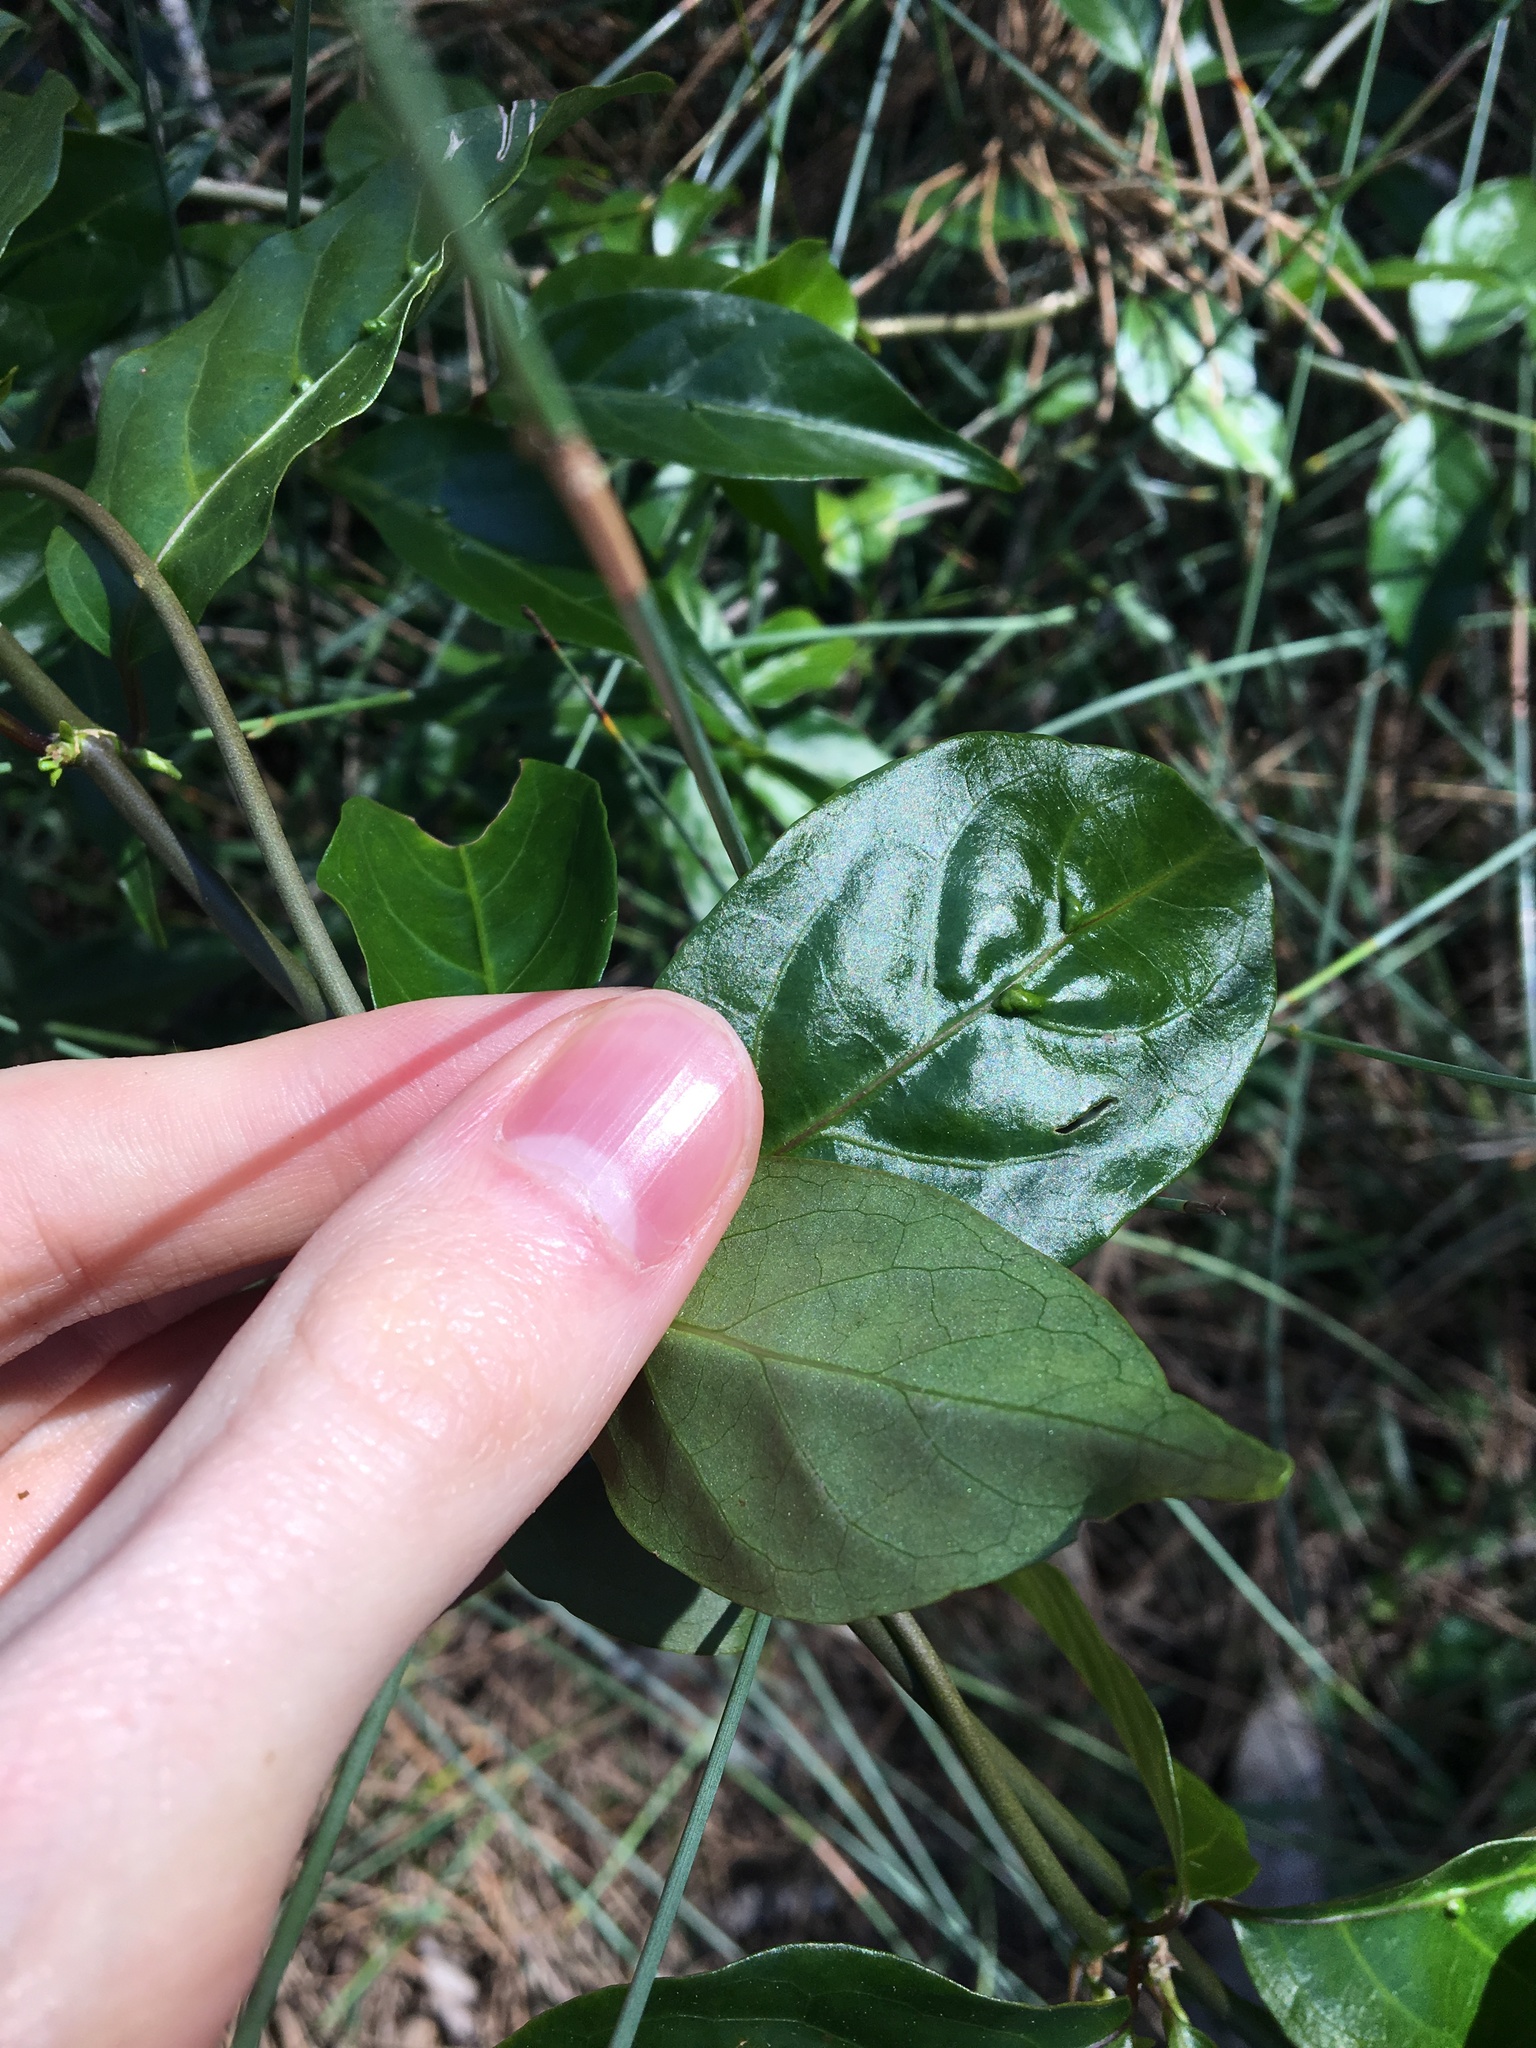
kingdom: Plantae
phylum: Tracheophyta
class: Magnoliopsida
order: Gentianales
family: Rubiaceae
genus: Gynochthodes
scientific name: Gynochthodes jasminoides
